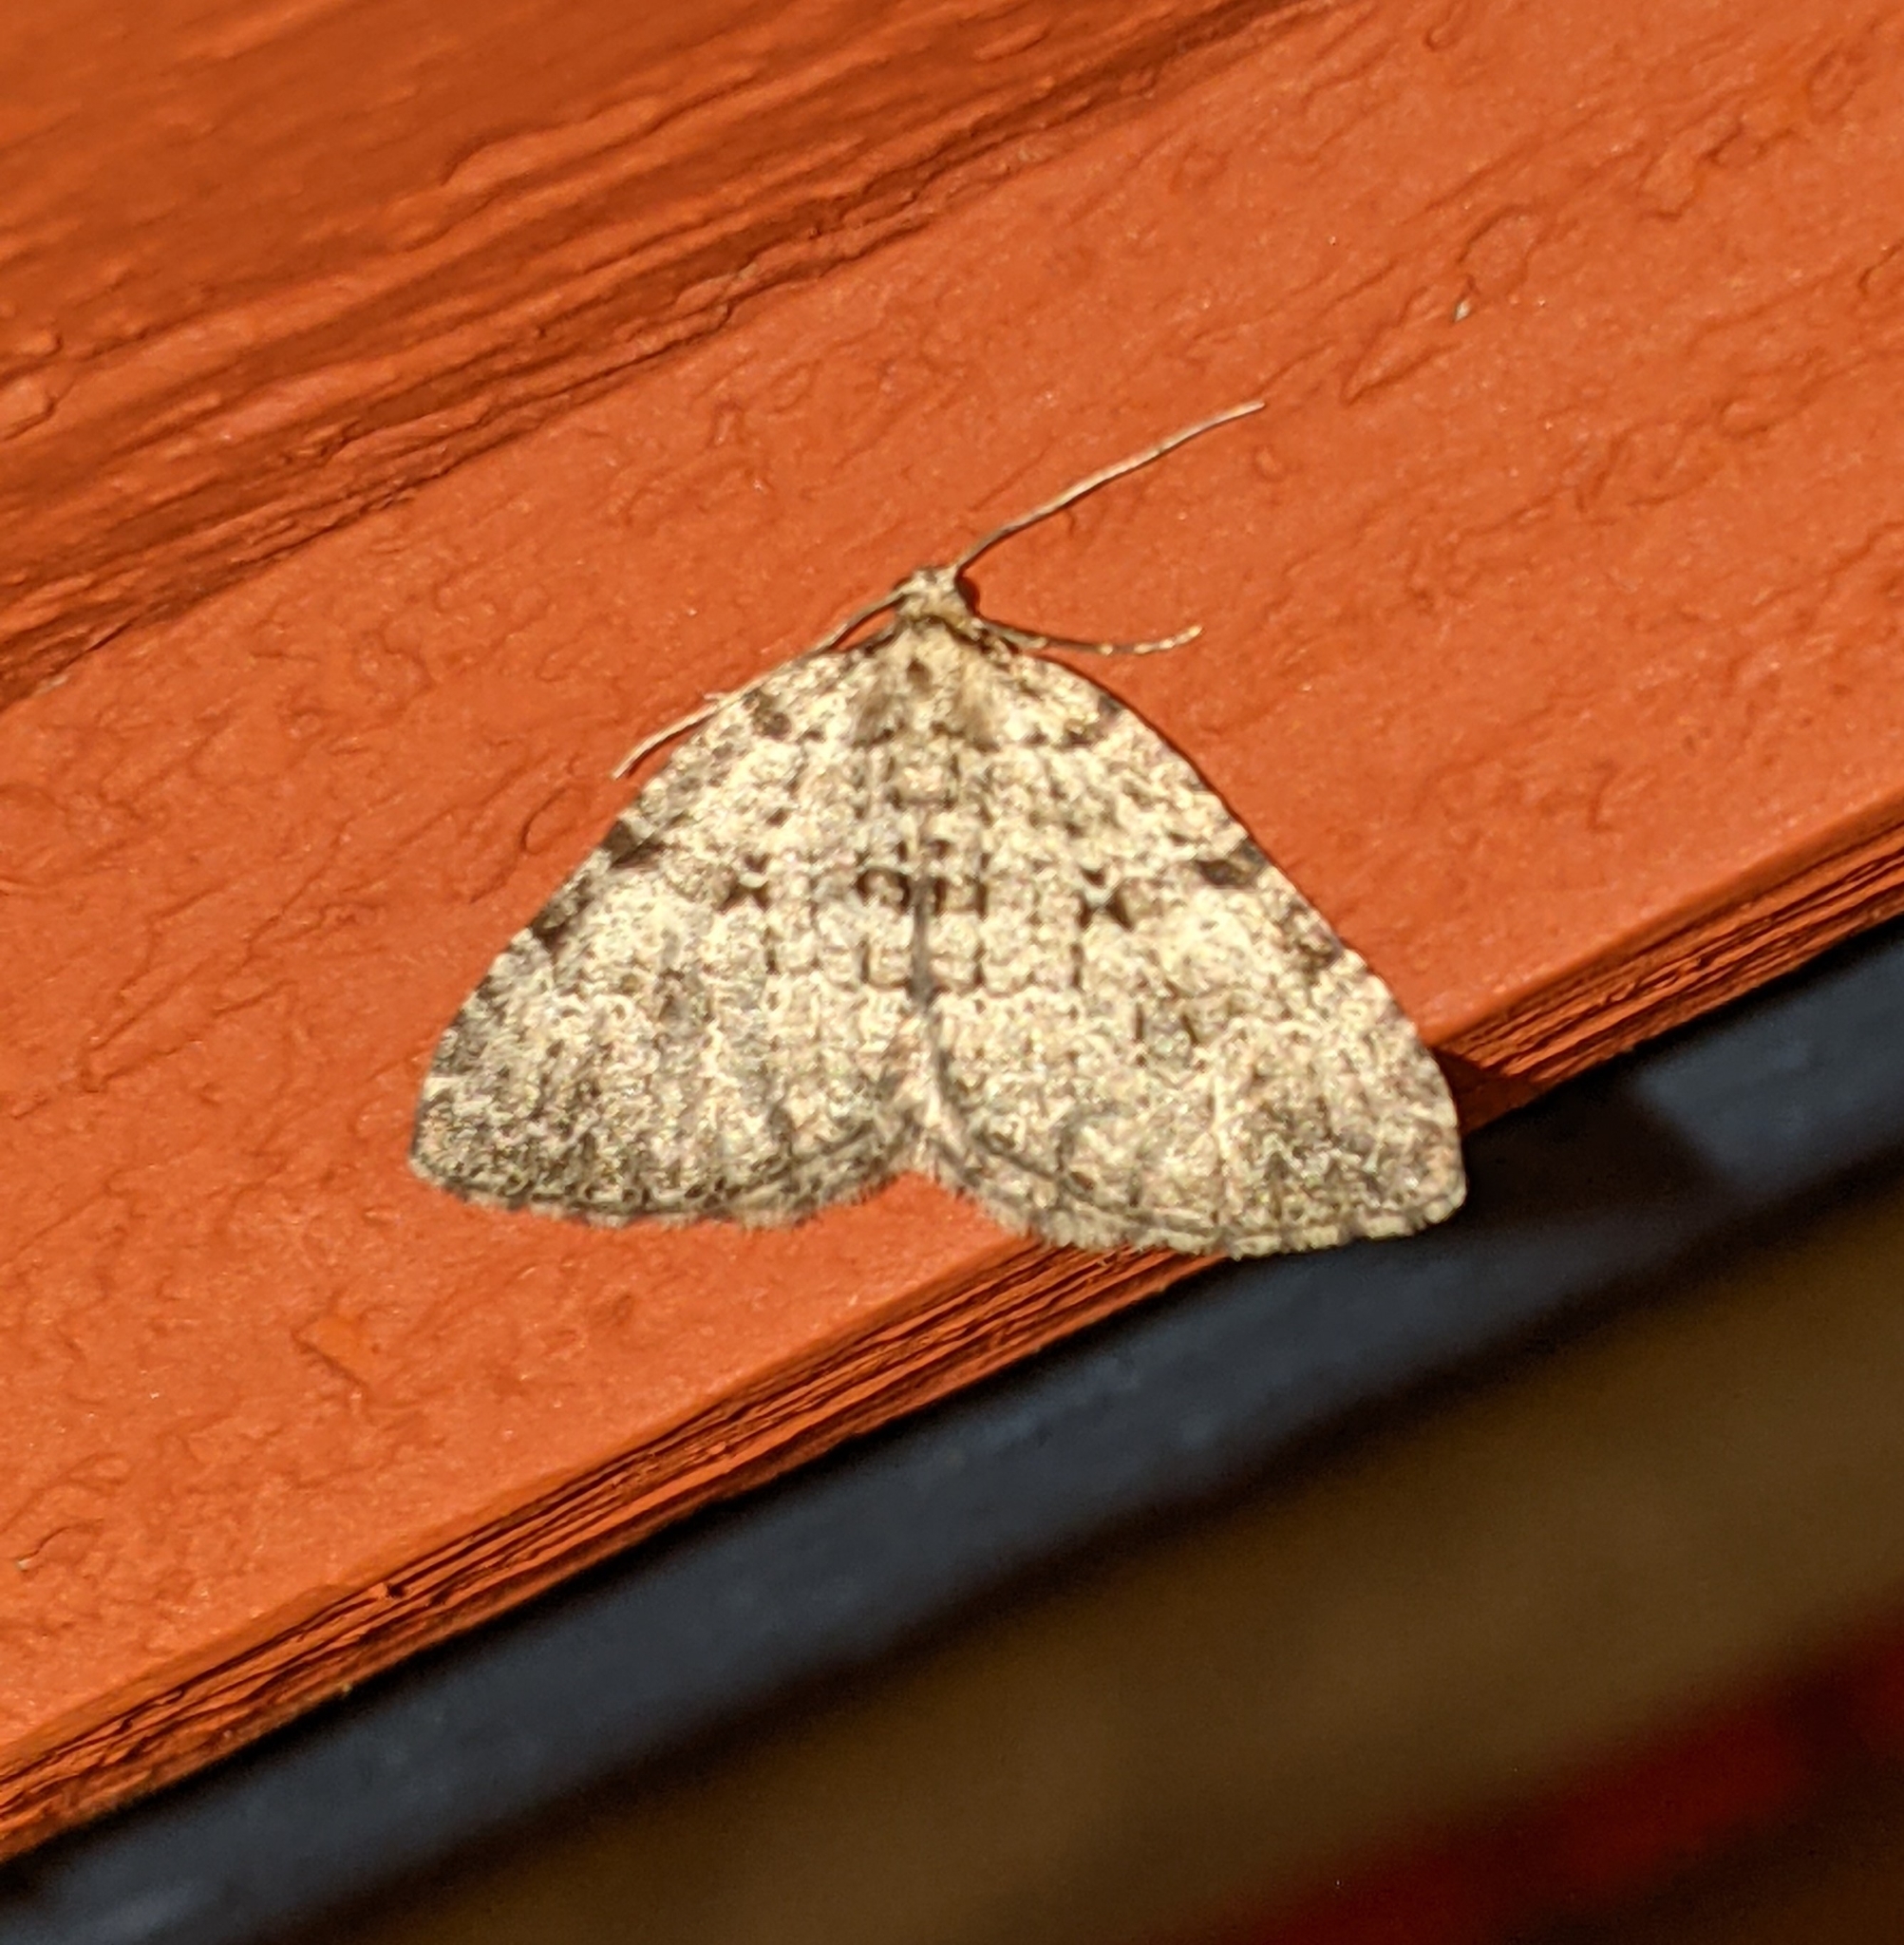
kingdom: Animalia
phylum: Arthropoda
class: Insecta
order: Lepidoptera
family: Geometridae
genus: Perizoma
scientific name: Perizoma curvilinea
